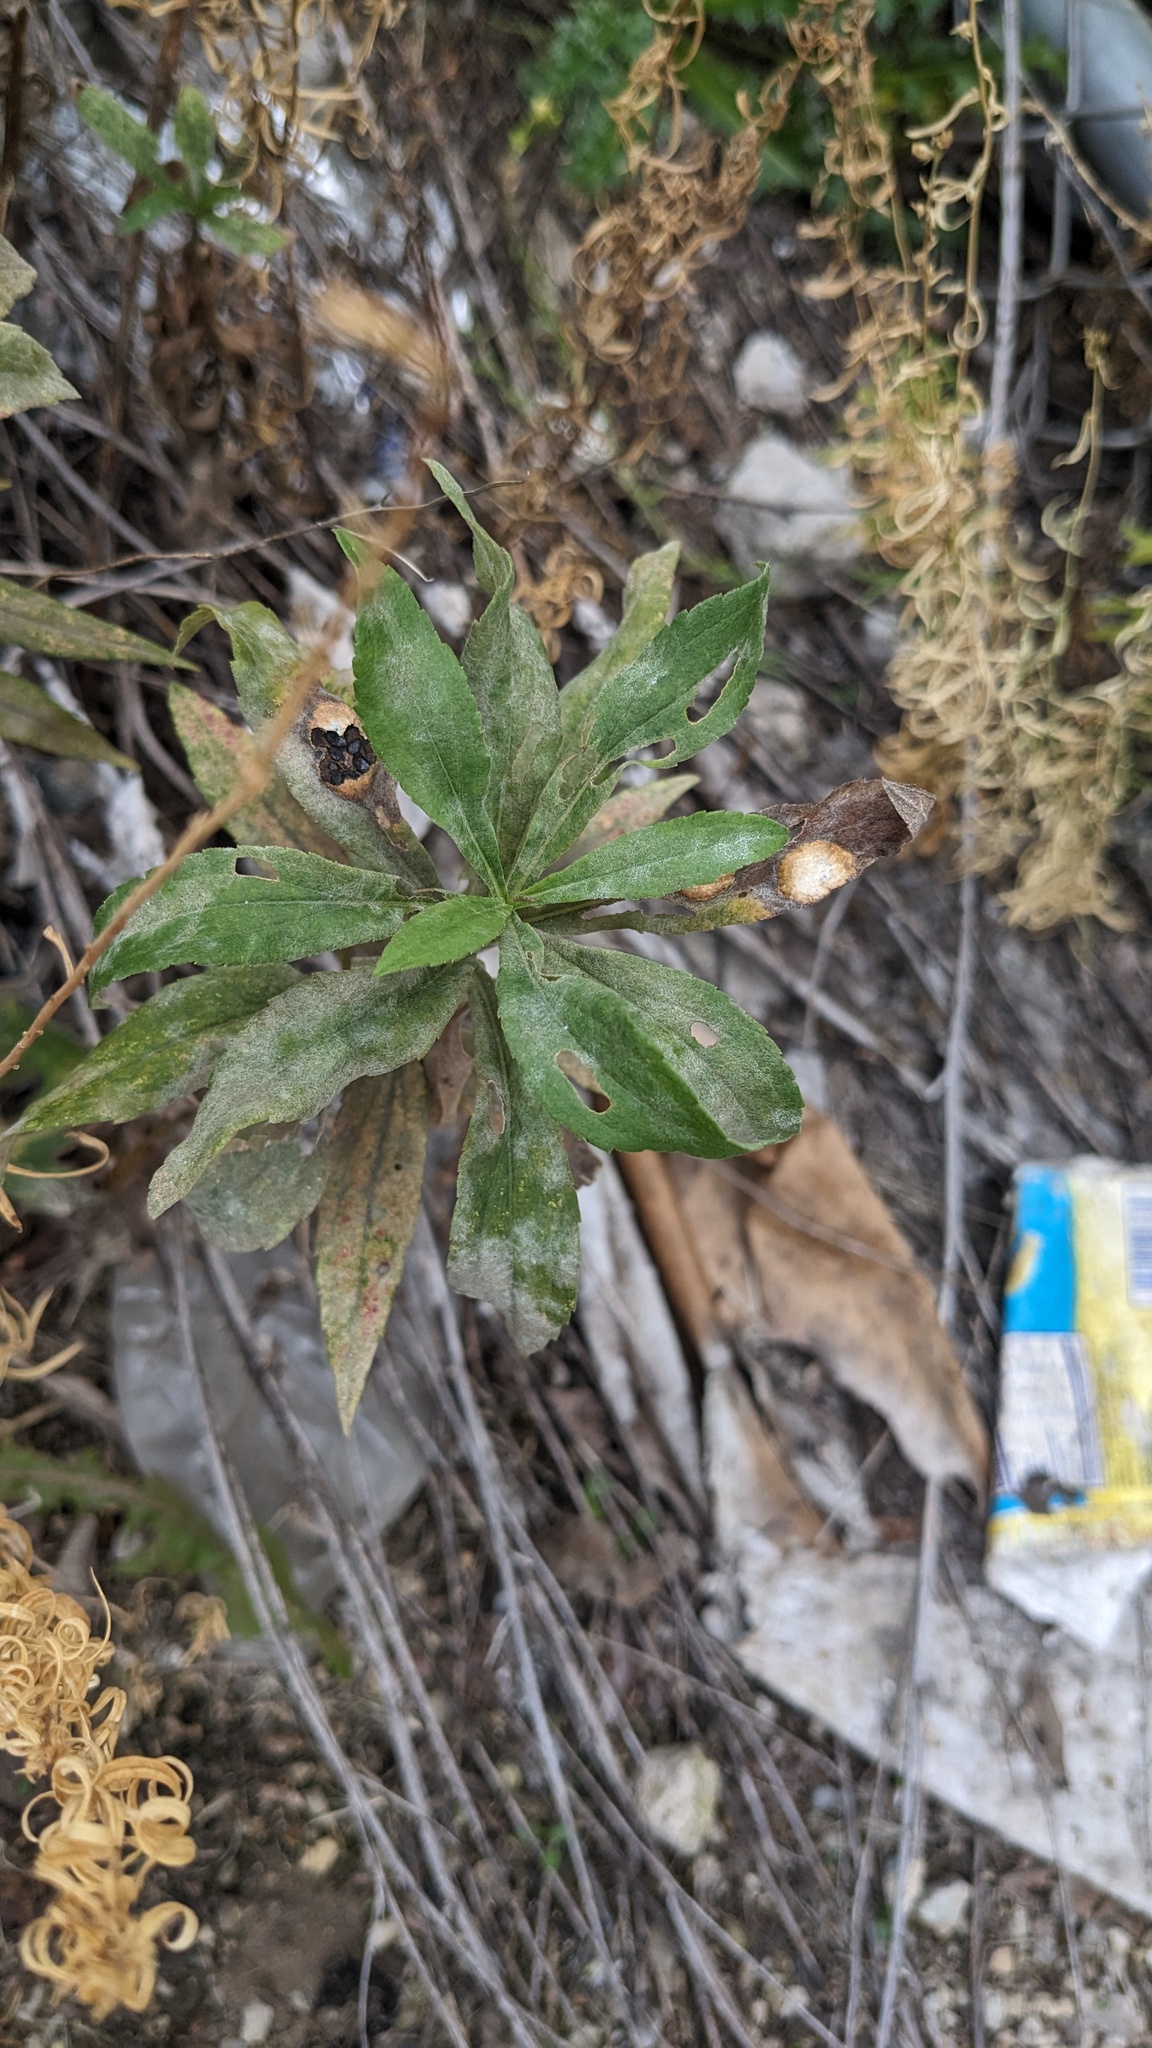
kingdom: Fungi
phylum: Ascomycota
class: Leotiomycetes
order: Helotiales
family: Erysiphaceae
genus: Golovinomyces
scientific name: Golovinomyces asterum
